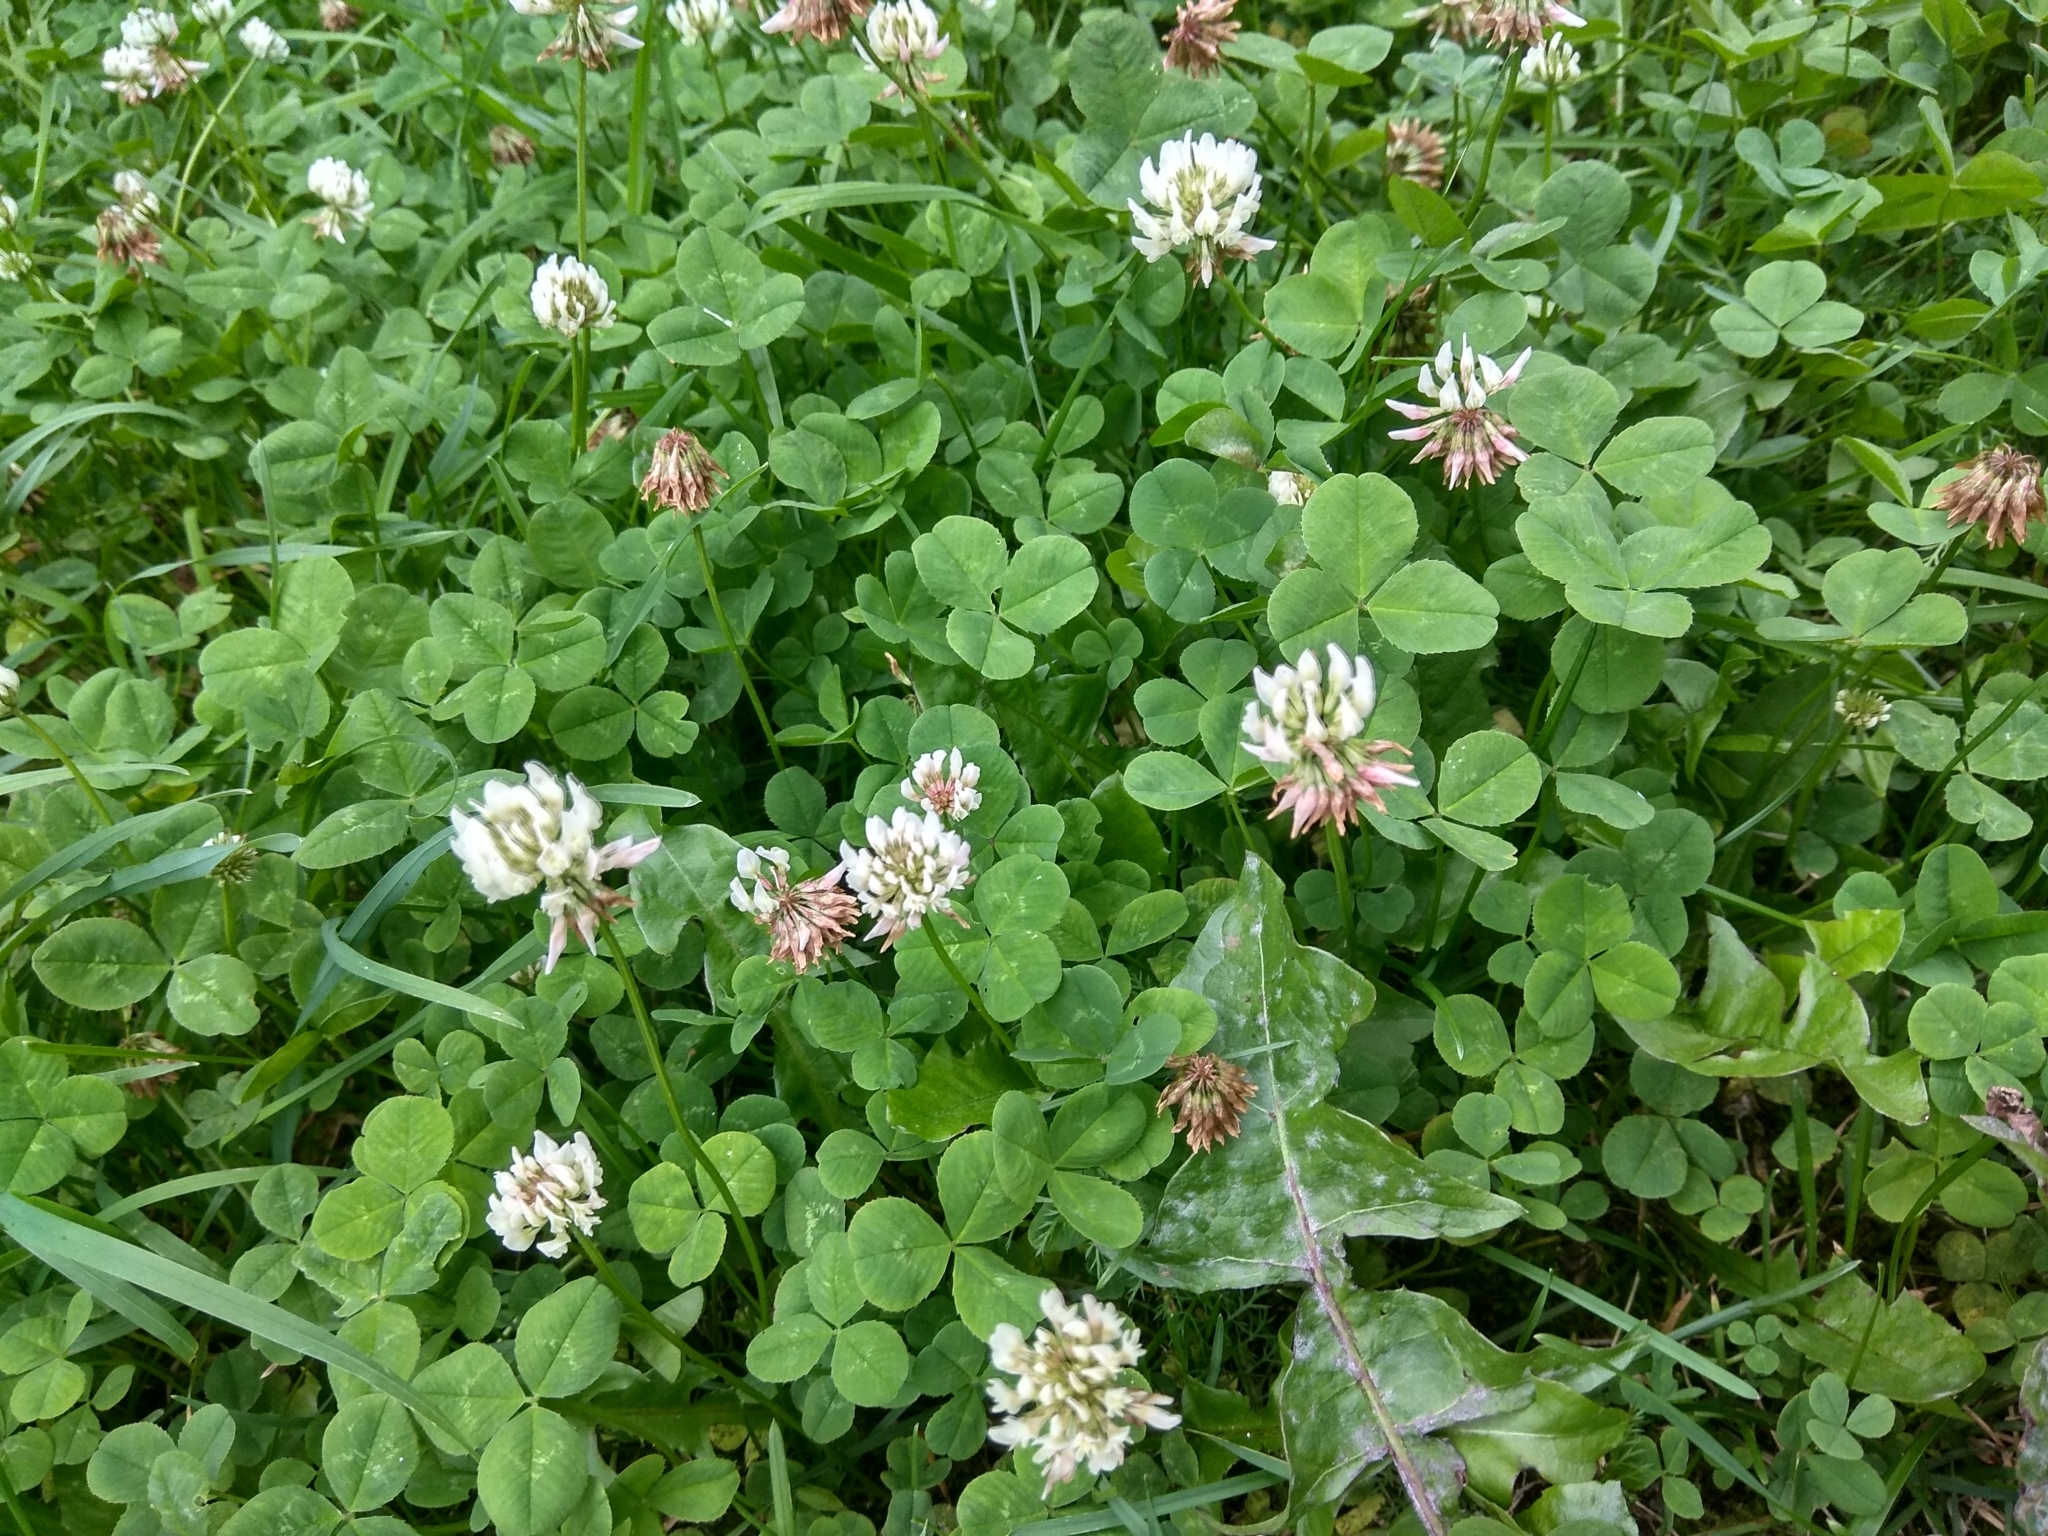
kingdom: Plantae
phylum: Tracheophyta
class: Magnoliopsida
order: Fabales
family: Fabaceae
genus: Trifolium
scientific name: Trifolium repens
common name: White clover
